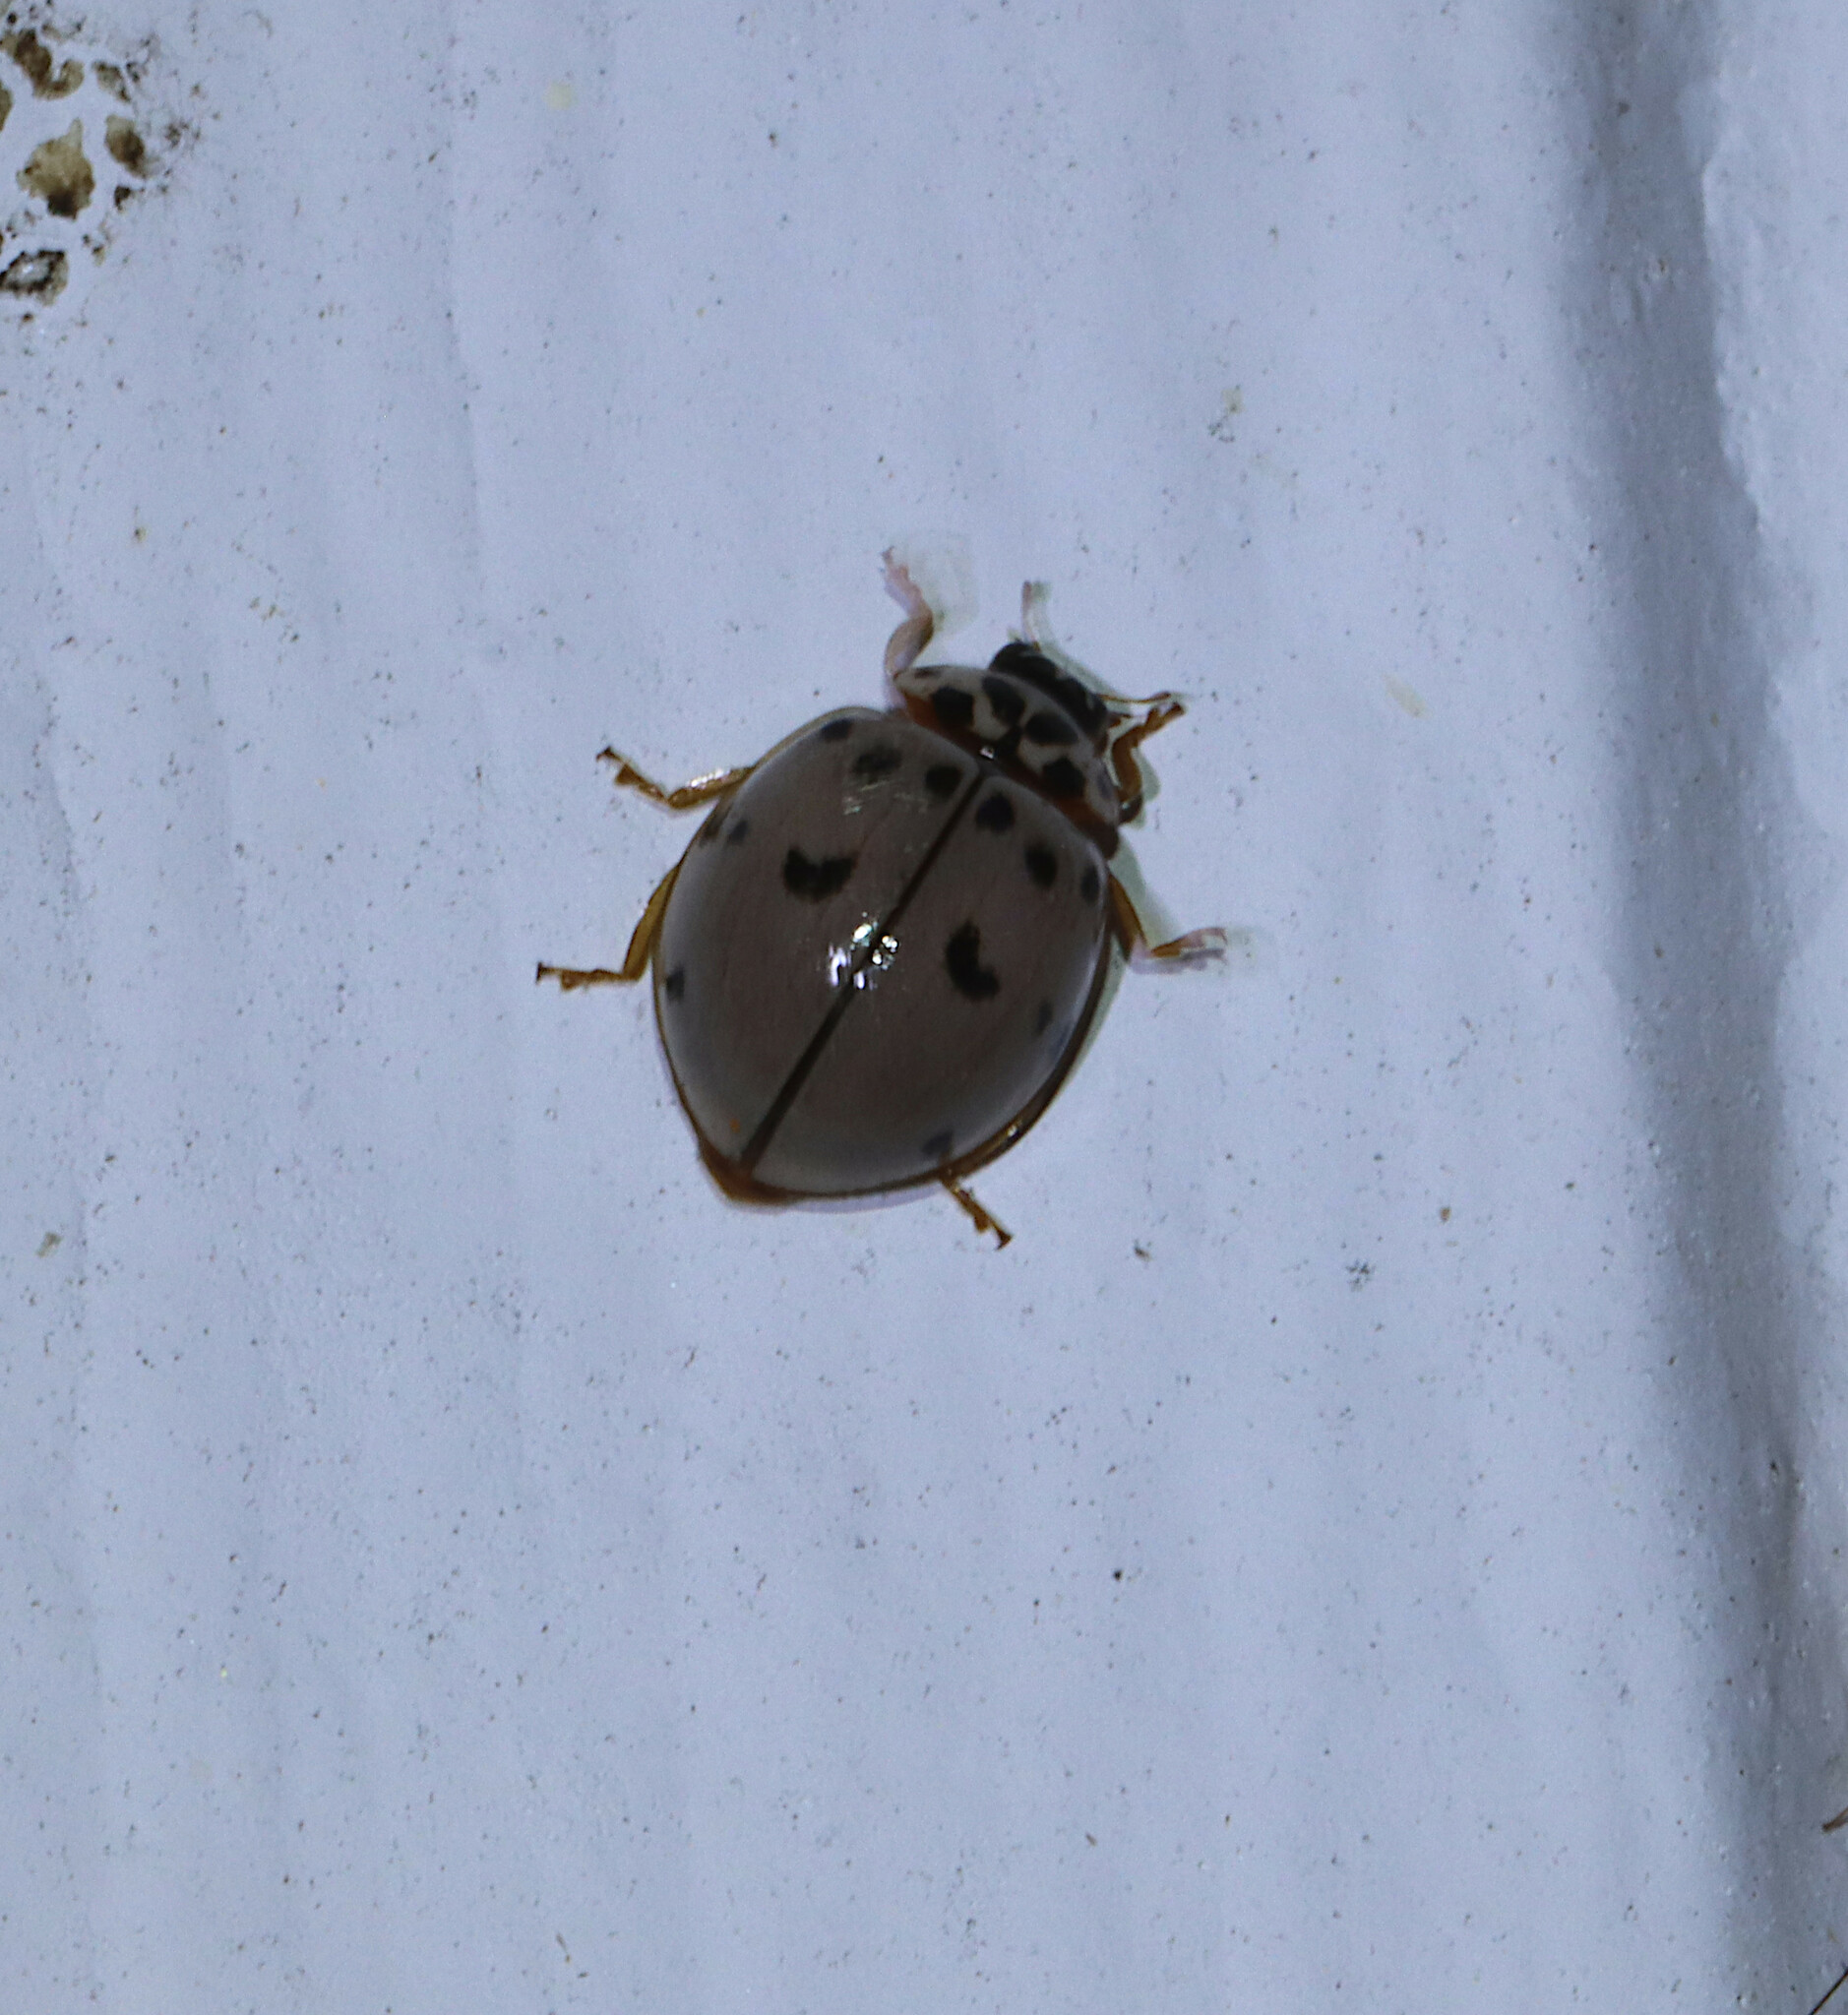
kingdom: Animalia
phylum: Arthropoda
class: Insecta
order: Coleoptera
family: Coccinellidae
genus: Olla
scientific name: Olla v-nigrum
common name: Ashy gray lady beetle
